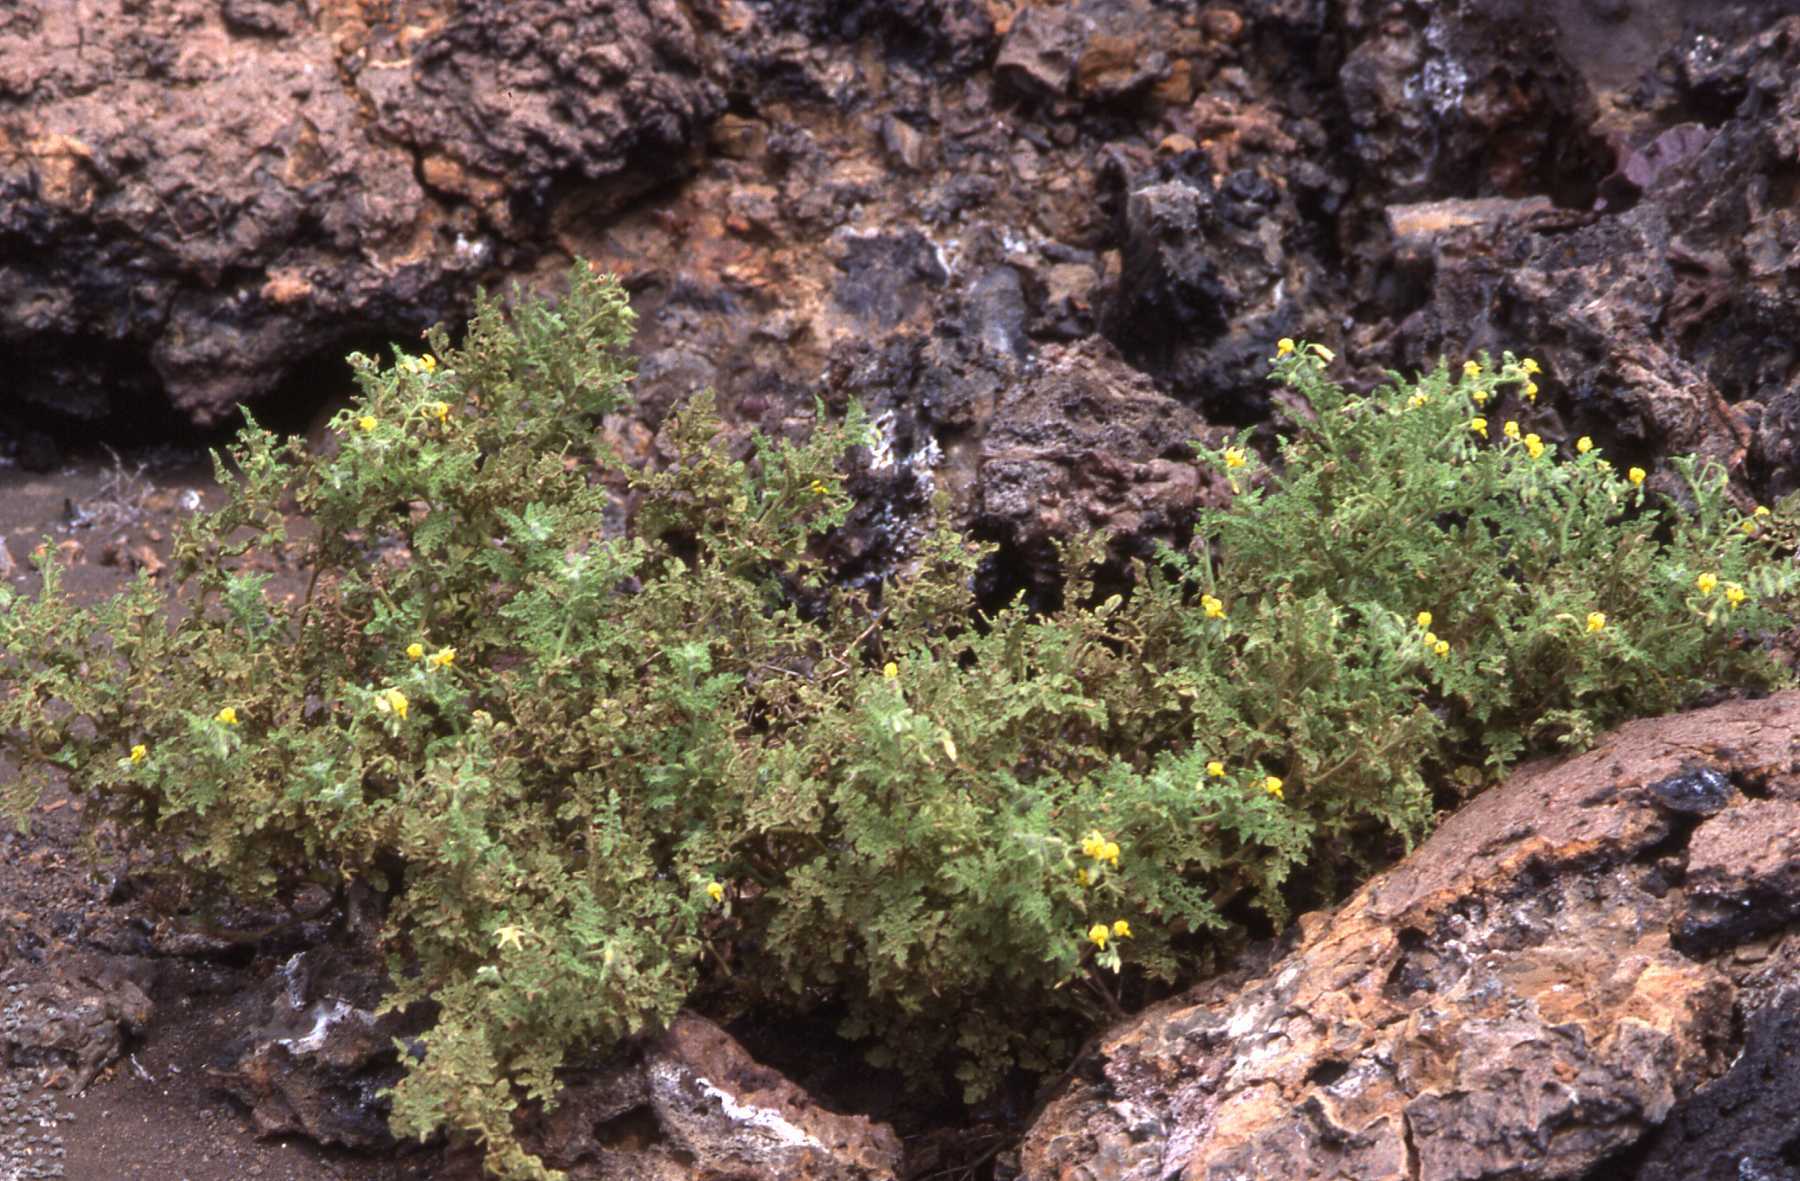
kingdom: Plantae
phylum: Tracheophyta
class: Magnoliopsida
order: Solanales
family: Solanaceae
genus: Solanum
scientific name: Solanum galapagense
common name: Galápagos tomato
